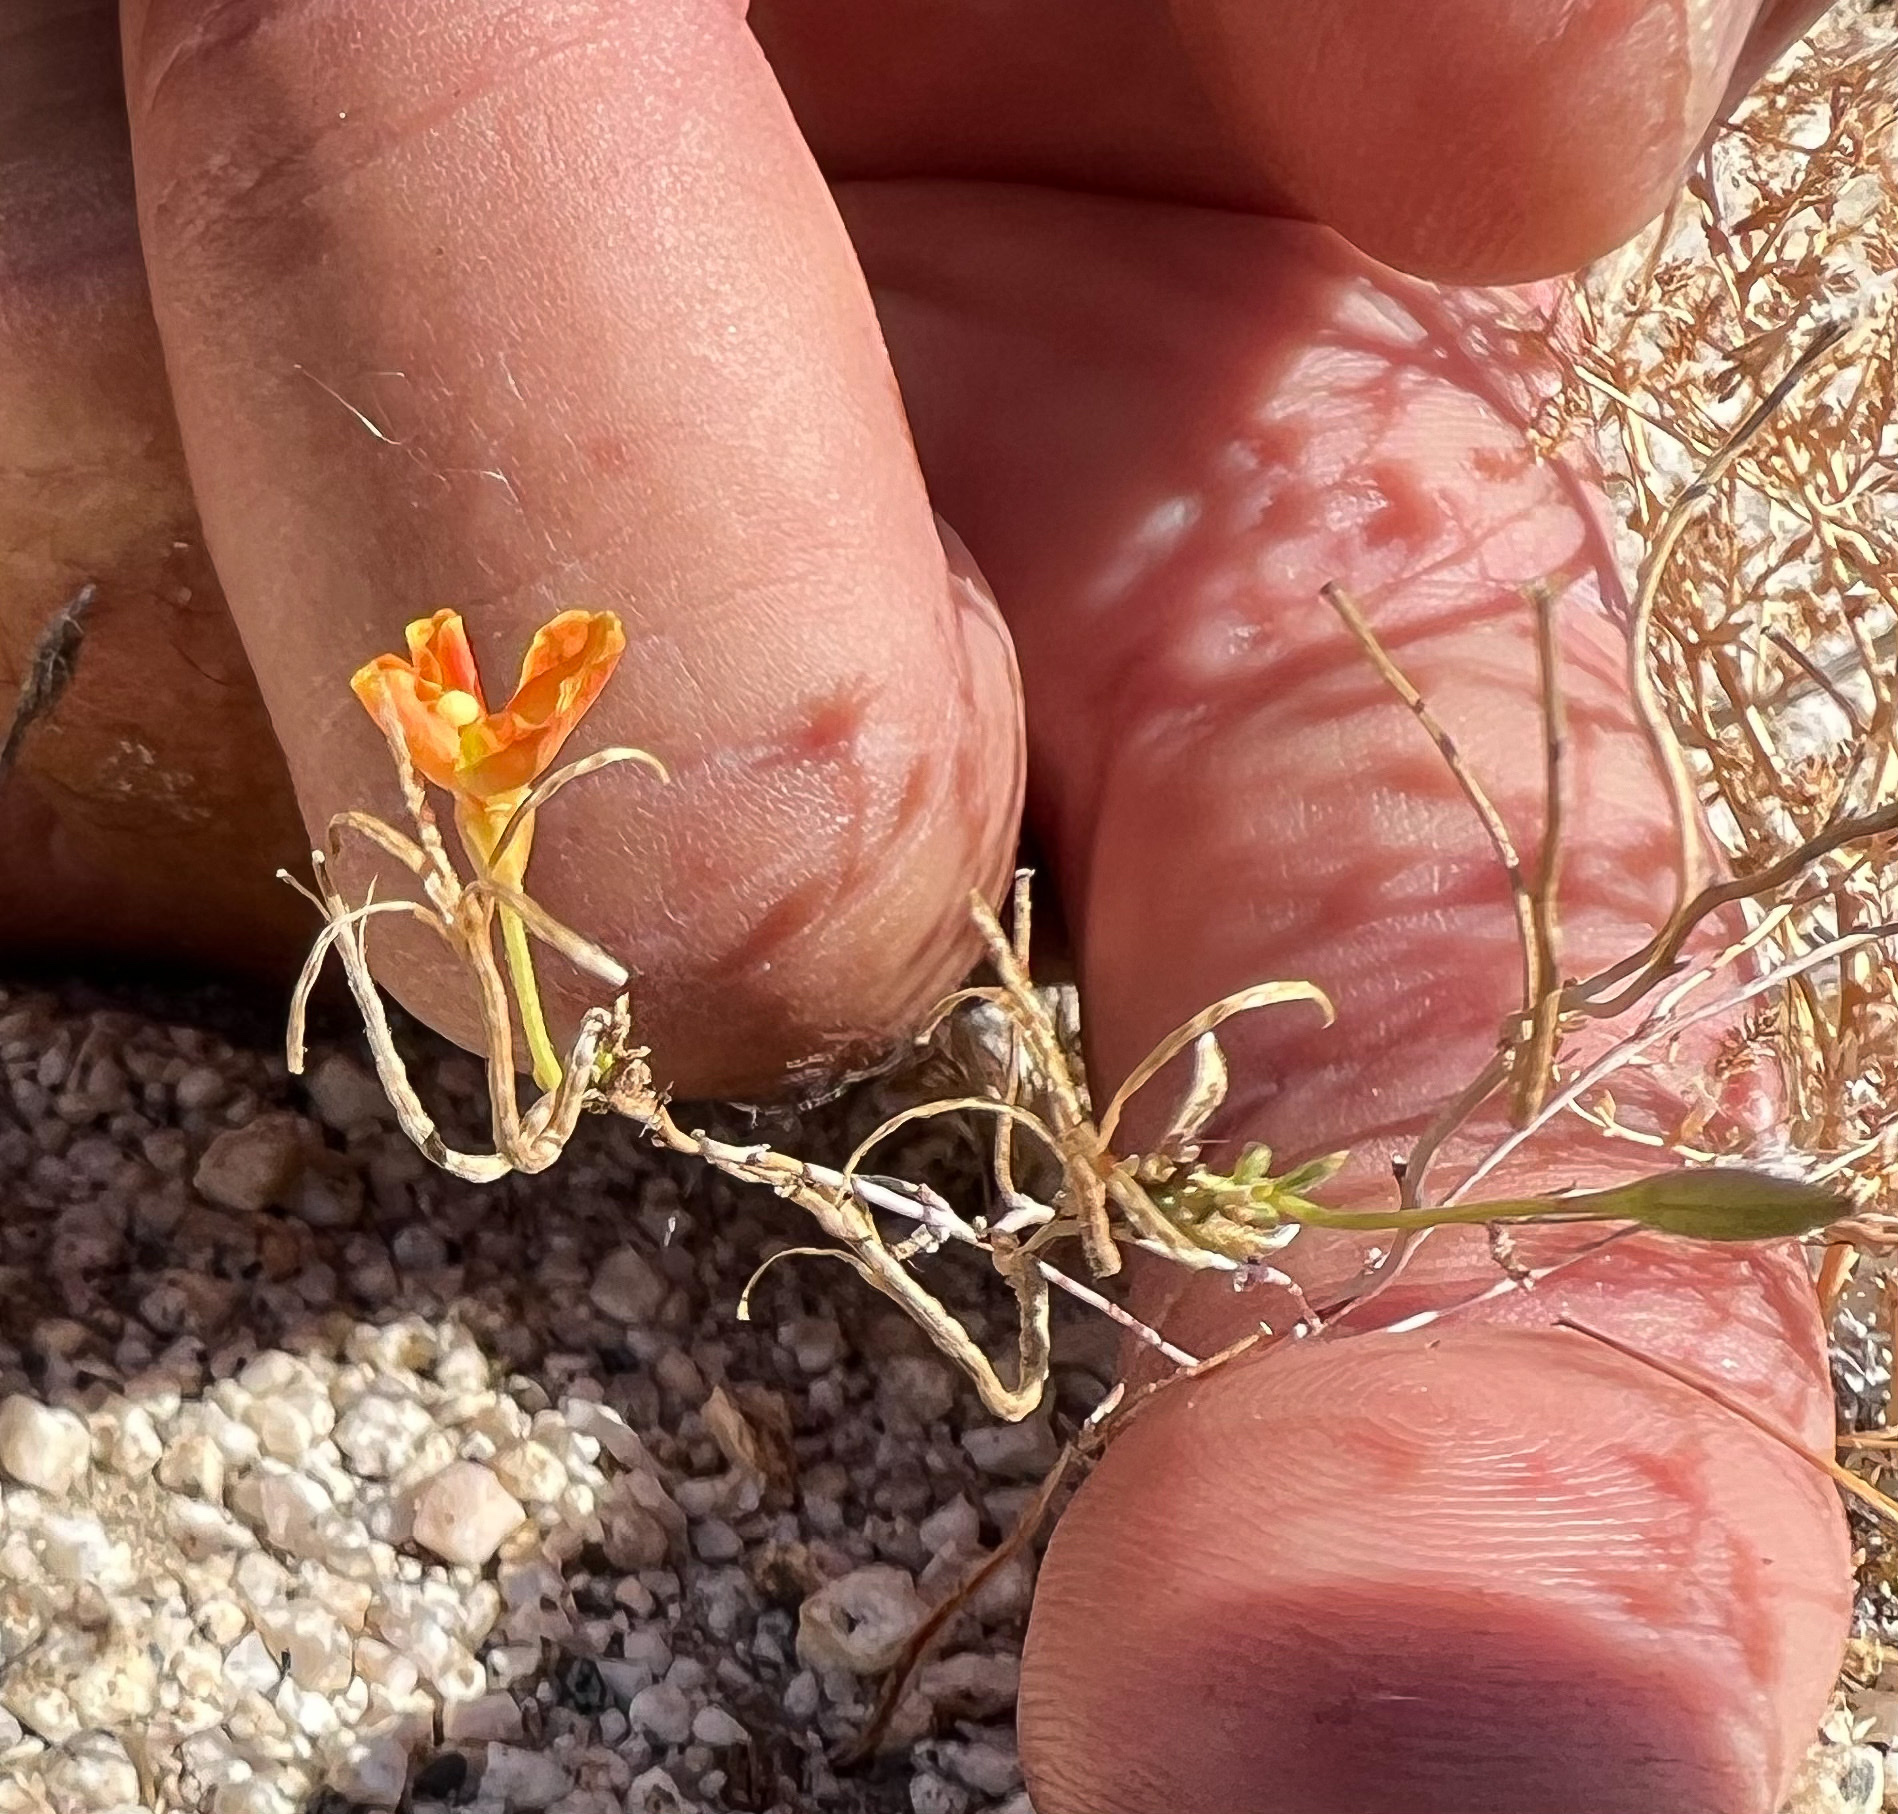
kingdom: Plantae
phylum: Tracheophyta
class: Magnoliopsida
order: Myrtales
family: Onagraceae
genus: Camissonia
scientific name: Camissonia campestris
